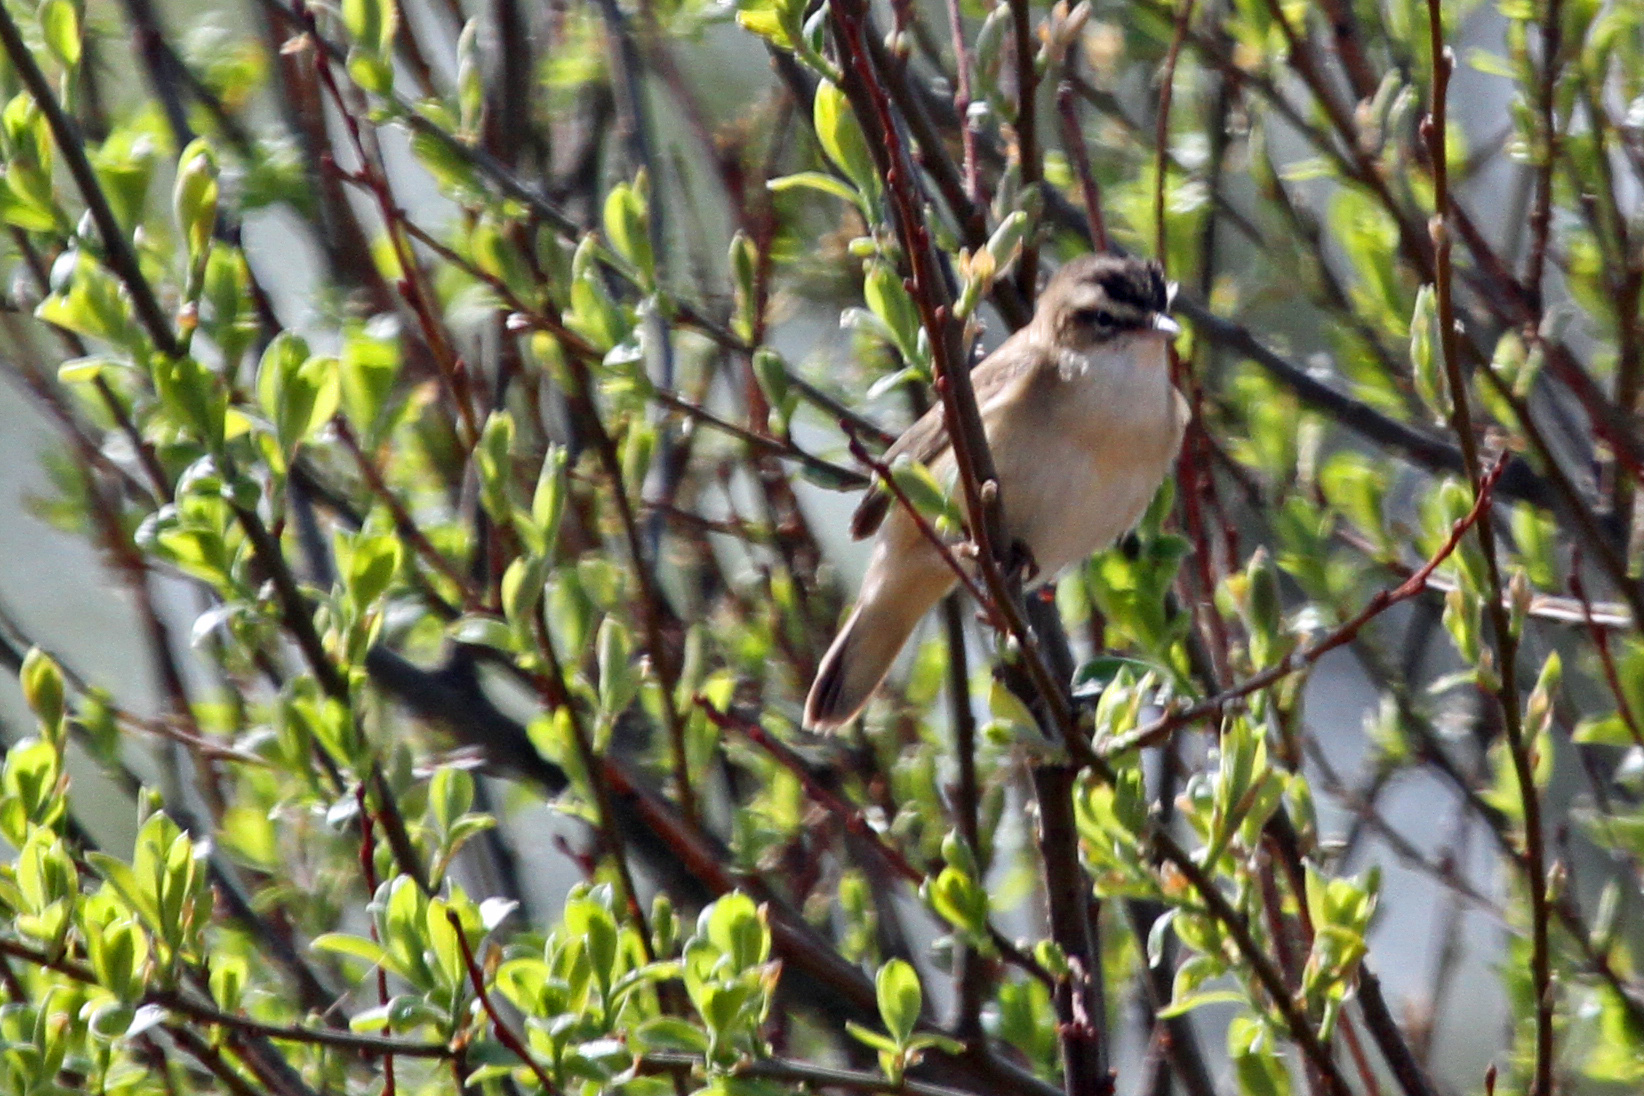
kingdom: Animalia
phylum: Chordata
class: Aves
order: Passeriformes
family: Acrocephalidae
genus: Acrocephalus
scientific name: Acrocephalus schoenobaenus
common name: Sedge warbler
